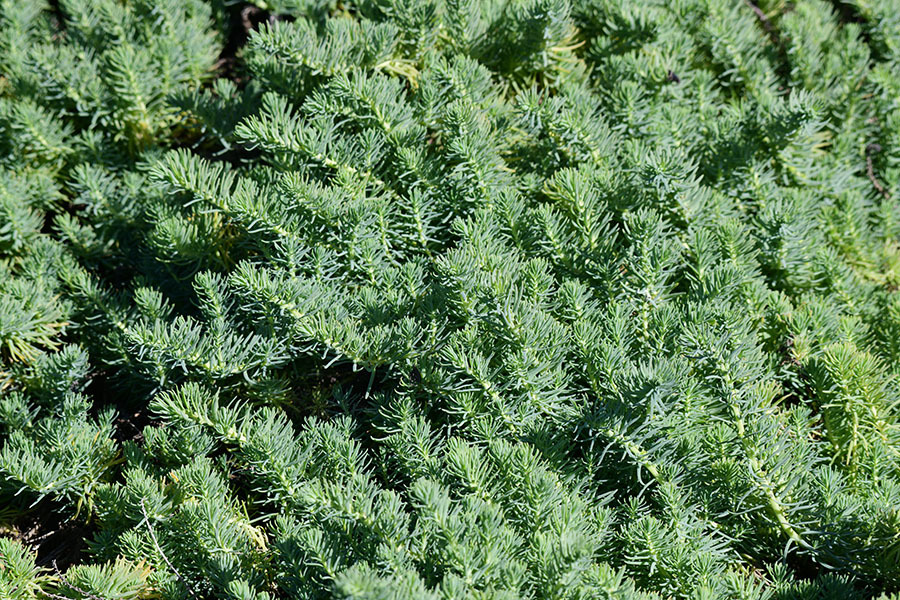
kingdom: Plantae
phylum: Tracheophyta
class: Magnoliopsida
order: Caryophyllales
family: Amaranthaceae
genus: Suaeda
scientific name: Suaeda californica
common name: California sea-blite
